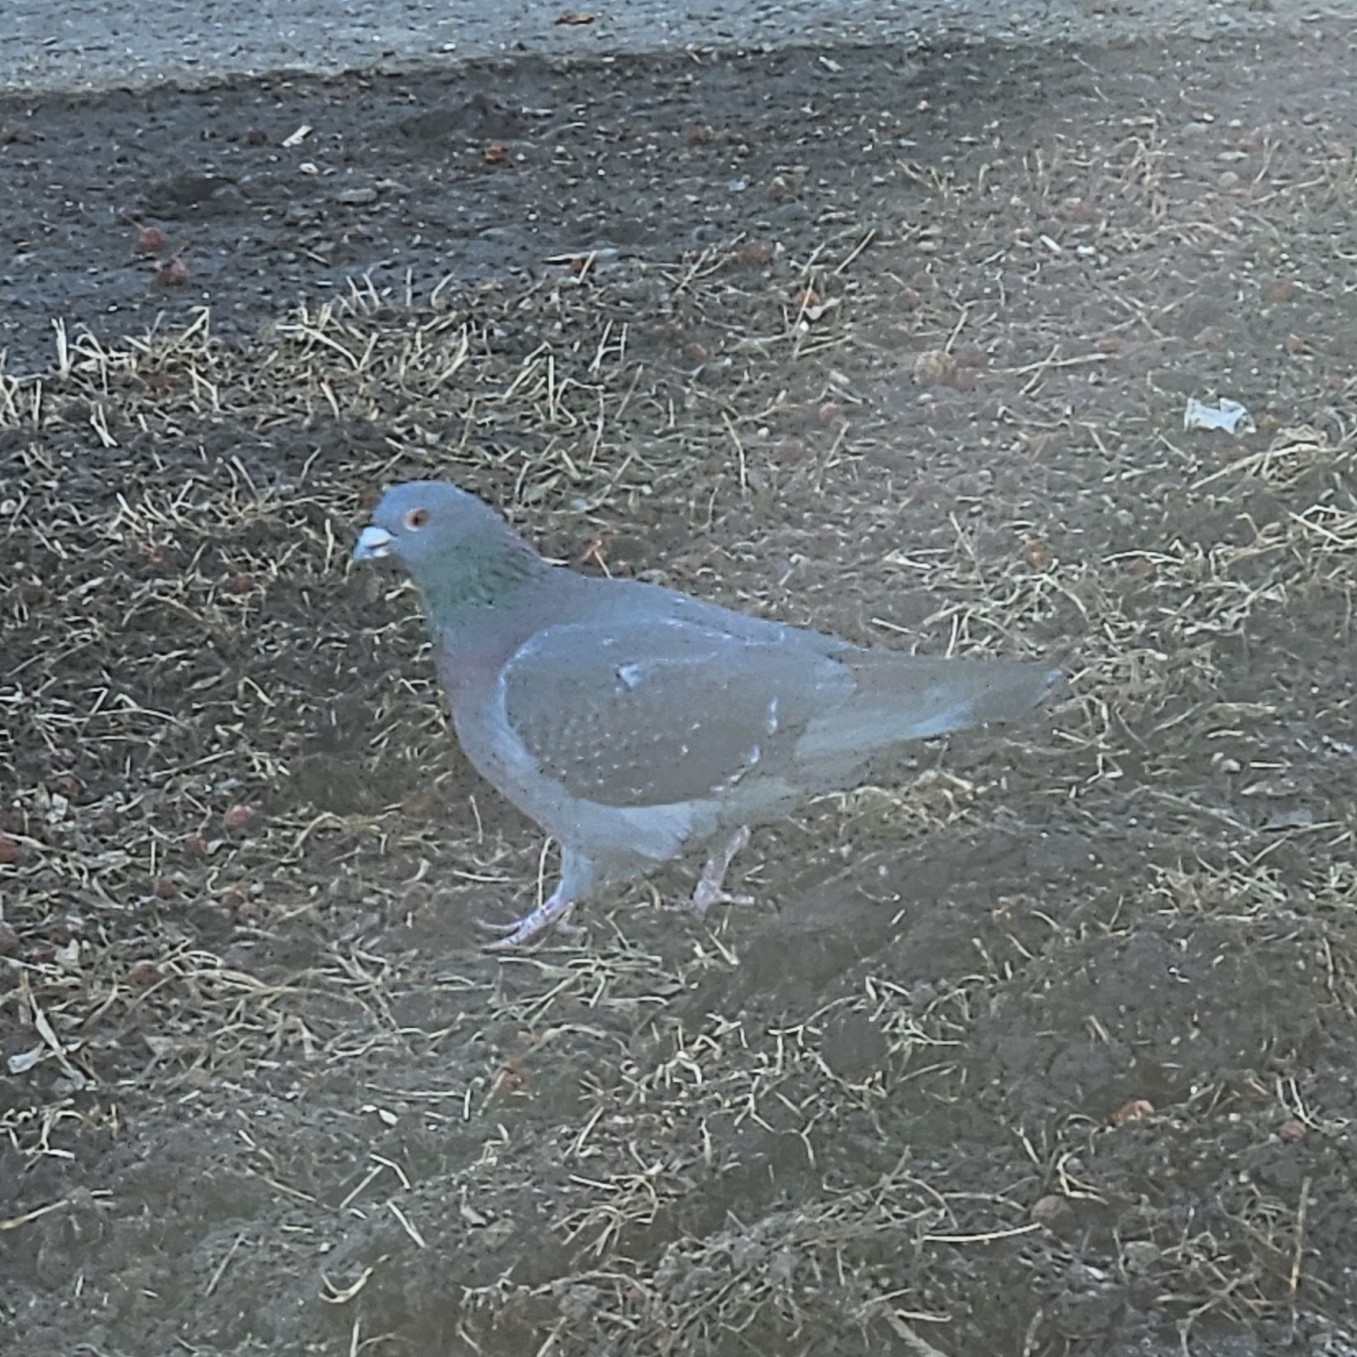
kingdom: Animalia
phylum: Chordata
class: Aves
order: Columbiformes
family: Columbidae
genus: Columba
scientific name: Columba livia
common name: Rock pigeon
